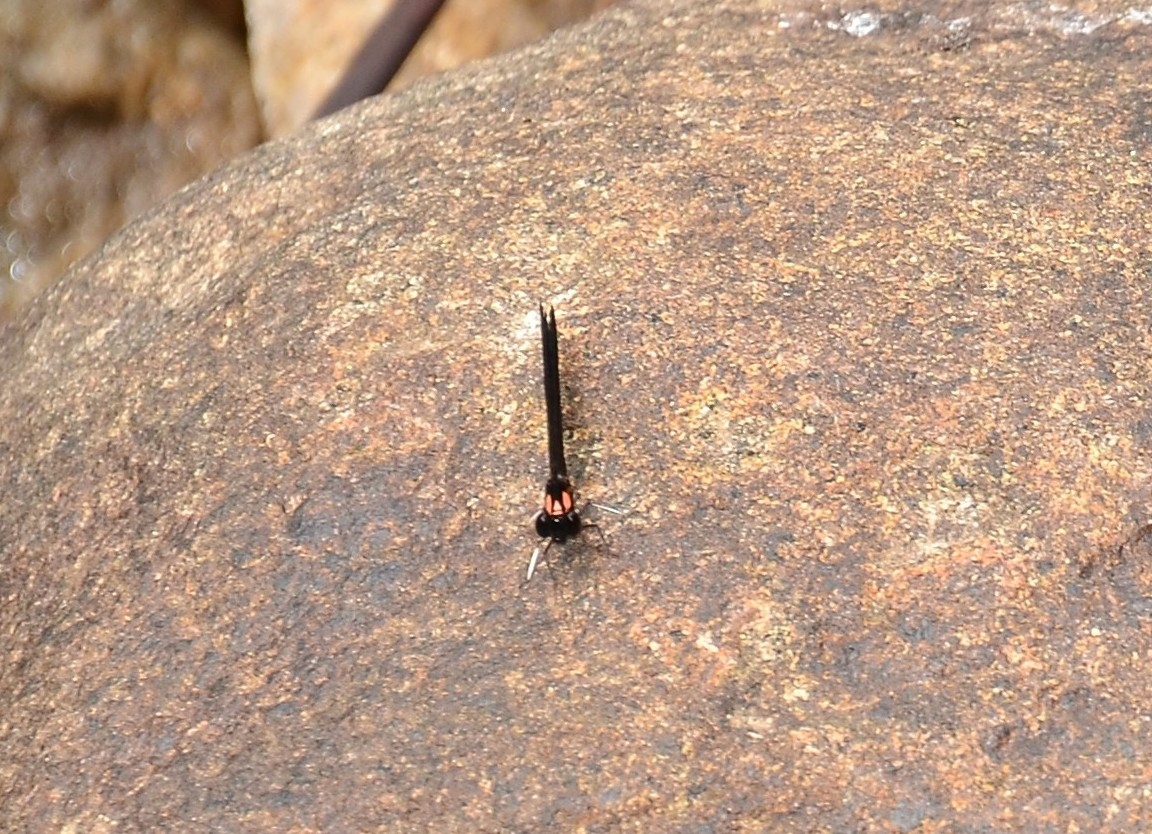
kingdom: Animalia
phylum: Arthropoda
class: Insecta
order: Odonata
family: Chlorocyphidae
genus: Heliocypha
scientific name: Heliocypha bisignata
